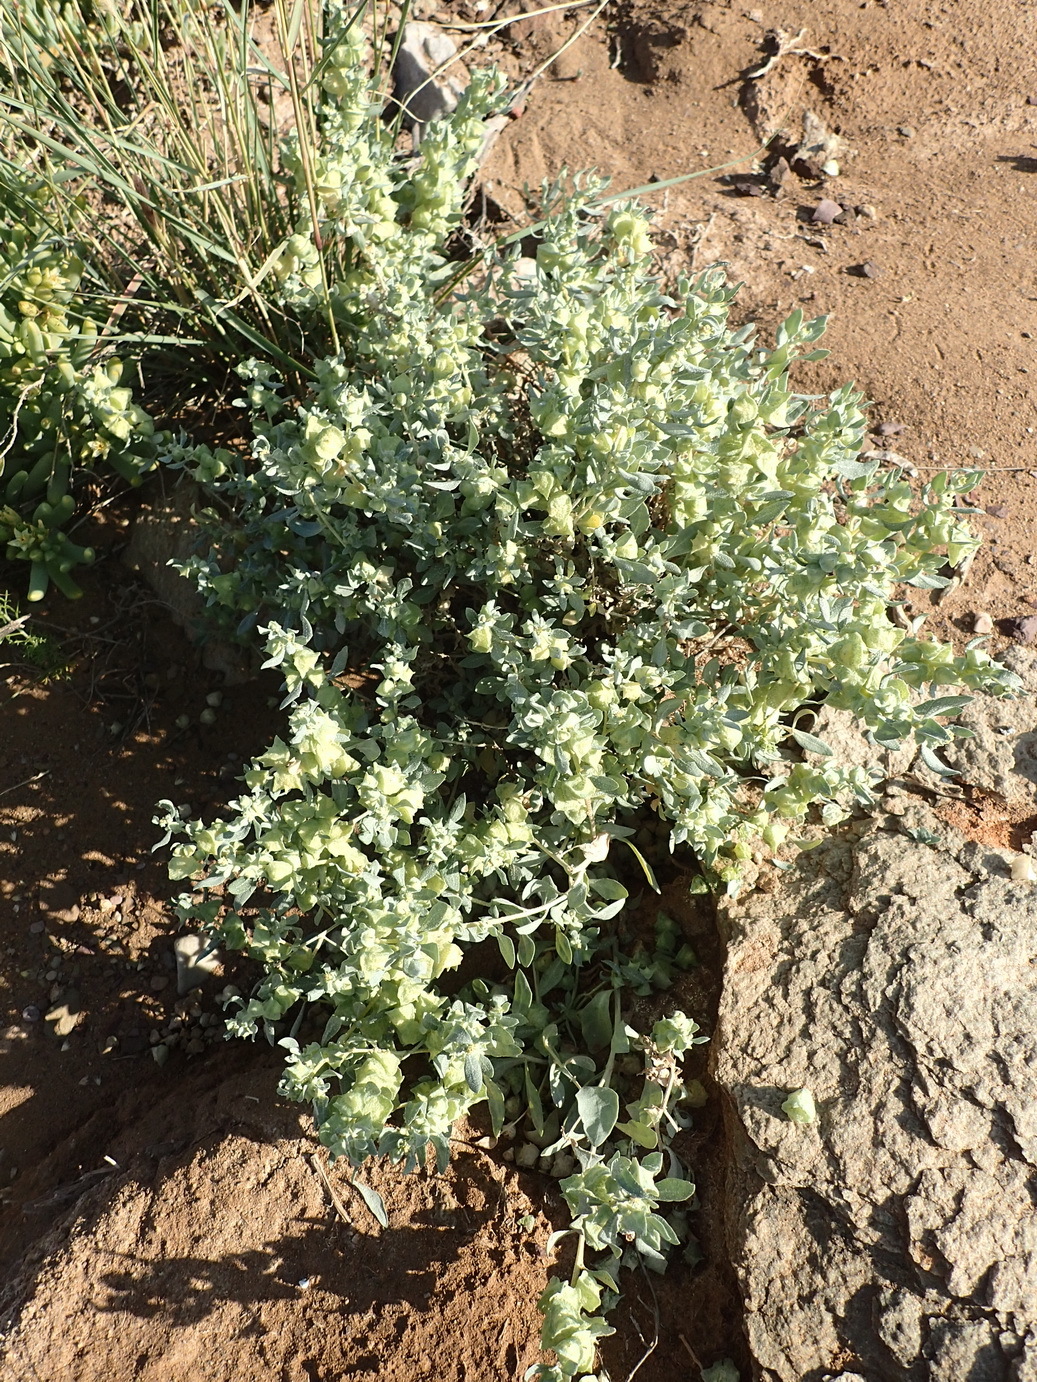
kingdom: Plantae
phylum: Tracheophyta
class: Magnoliopsida
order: Caryophyllales
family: Amaranthaceae
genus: Atriplex
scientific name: Atriplex lindleyi
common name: Lindley's saltbush
